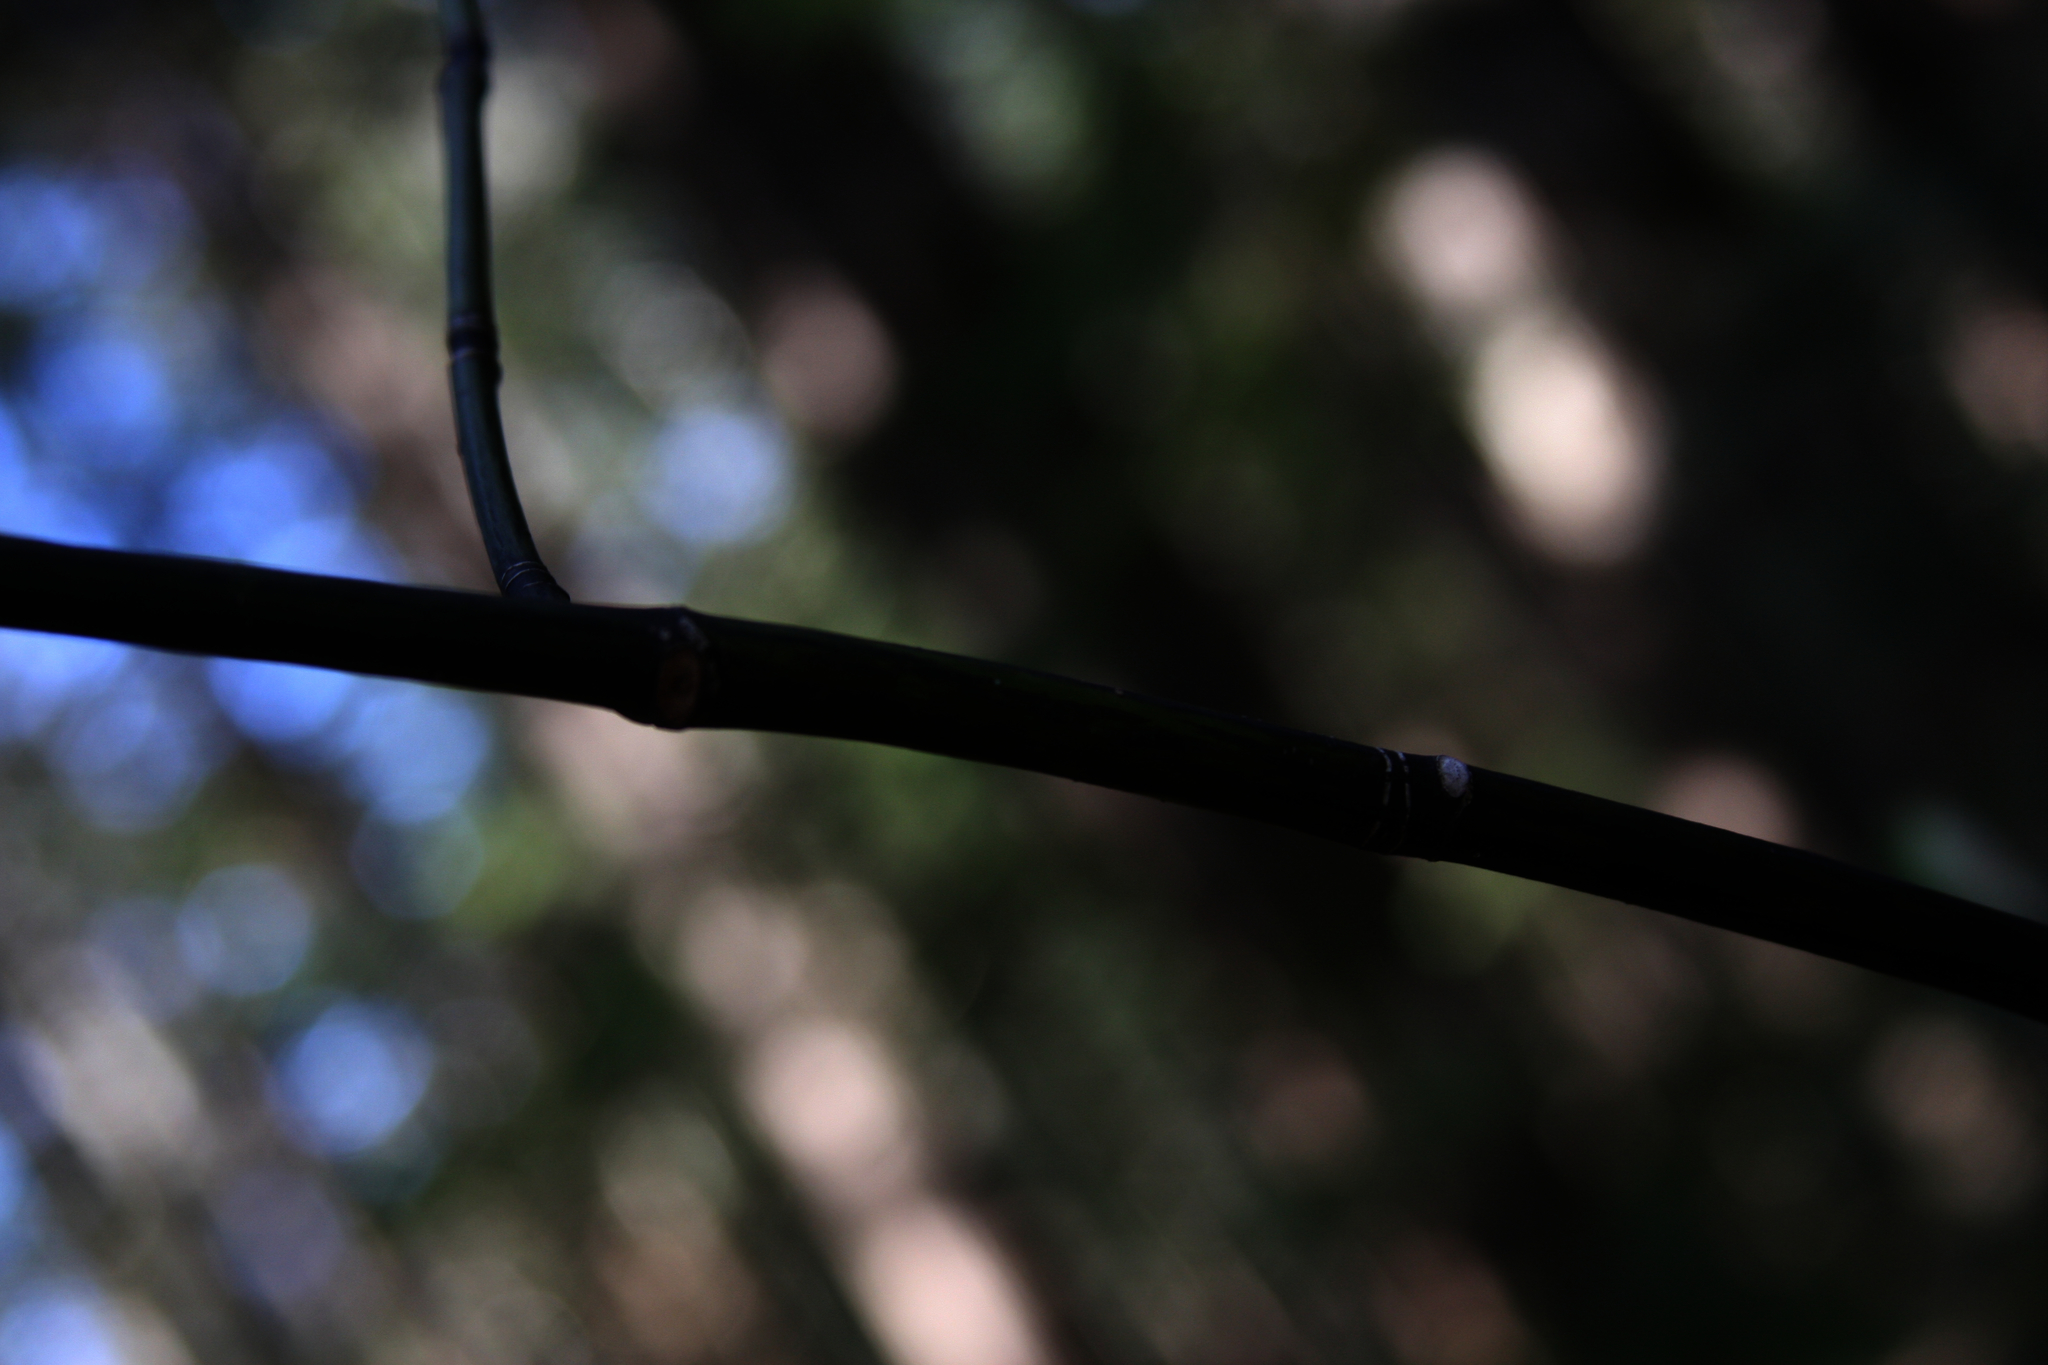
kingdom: Plantae
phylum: Tracheophyta
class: Magnoliopsida
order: Sapindales
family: Sapindaceae
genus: Acer
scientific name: Acer pensylvanicum
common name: Moosewood
